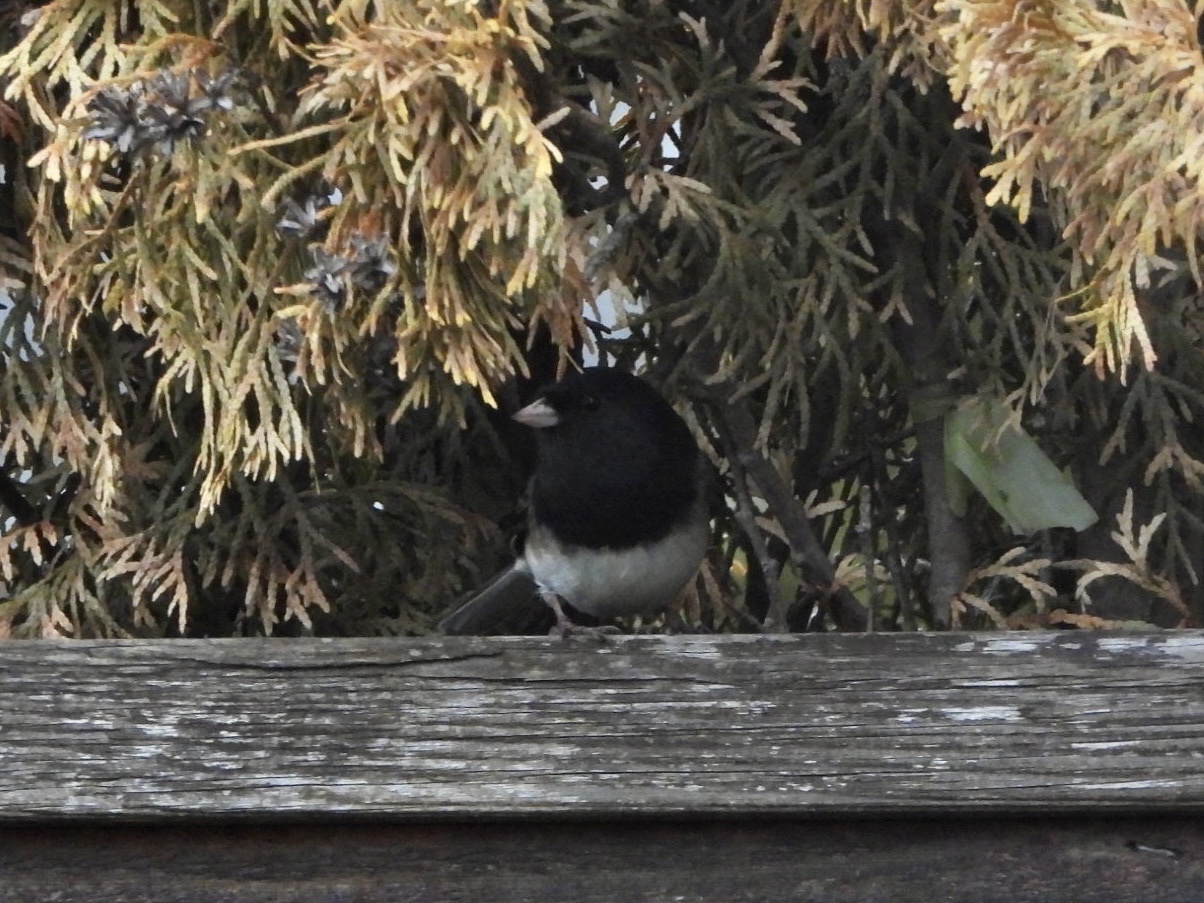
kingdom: Animalia
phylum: Chordata
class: Aves
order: Passeriformes
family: Passerellidae
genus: Junco
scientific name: Junco hyemalis
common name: Dark-eyed junco
